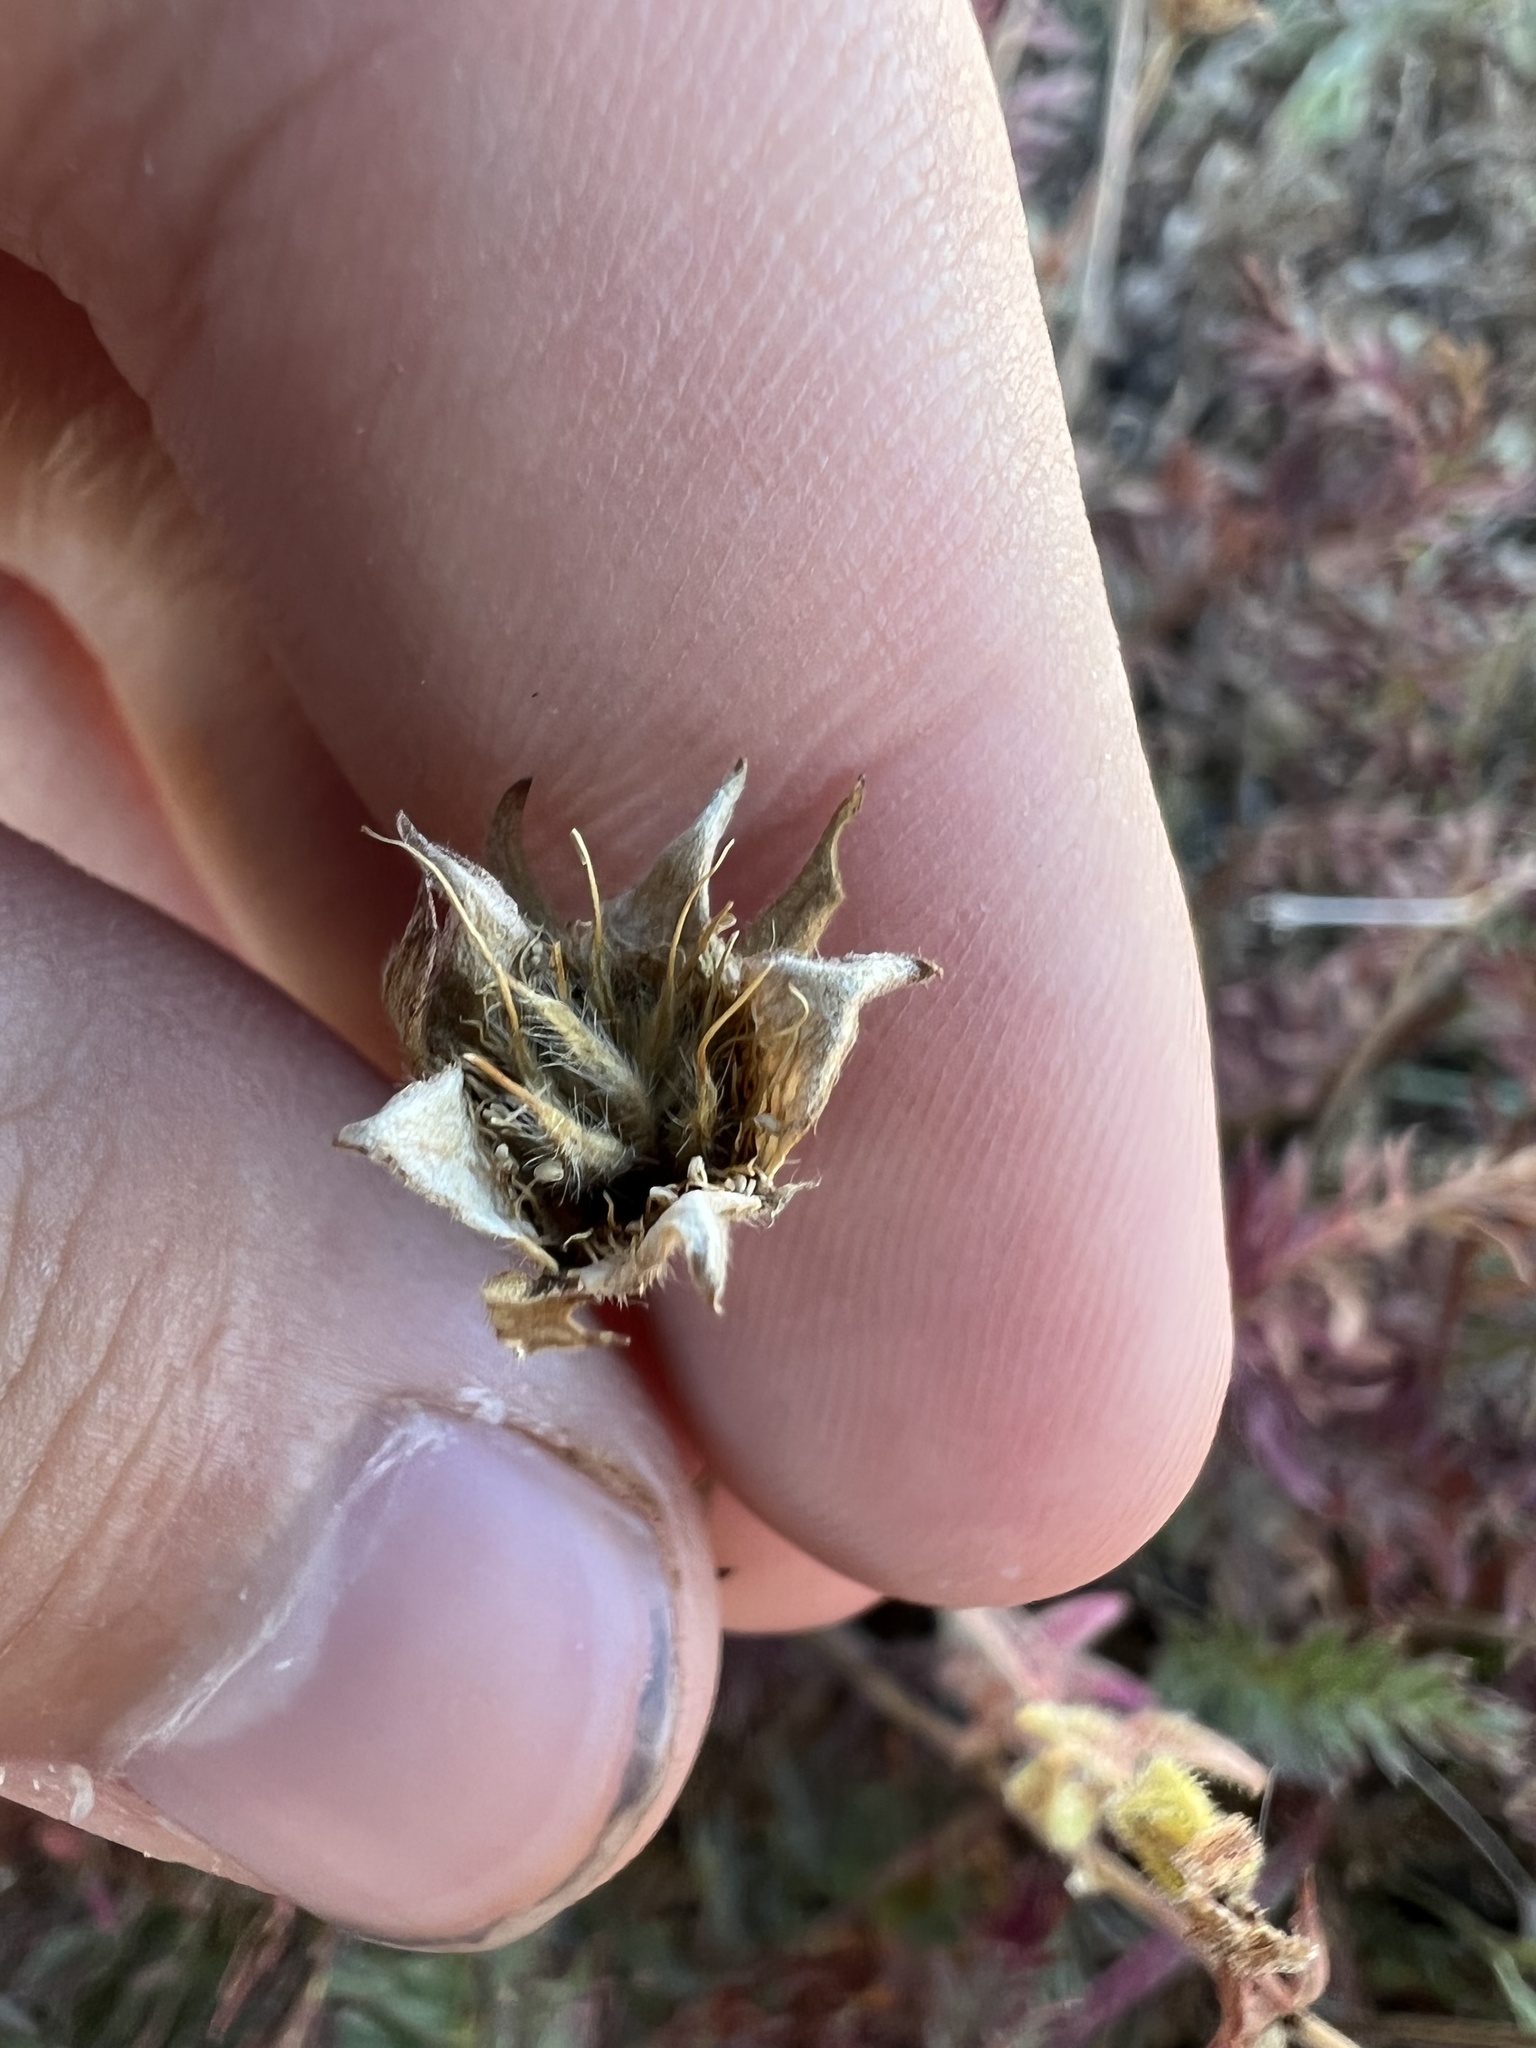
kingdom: Plantae
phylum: Tracheophyta
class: Magnoliopsida
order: Rosales
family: Rosaceae
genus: Geum
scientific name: Geum rossii
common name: Alpine avens
